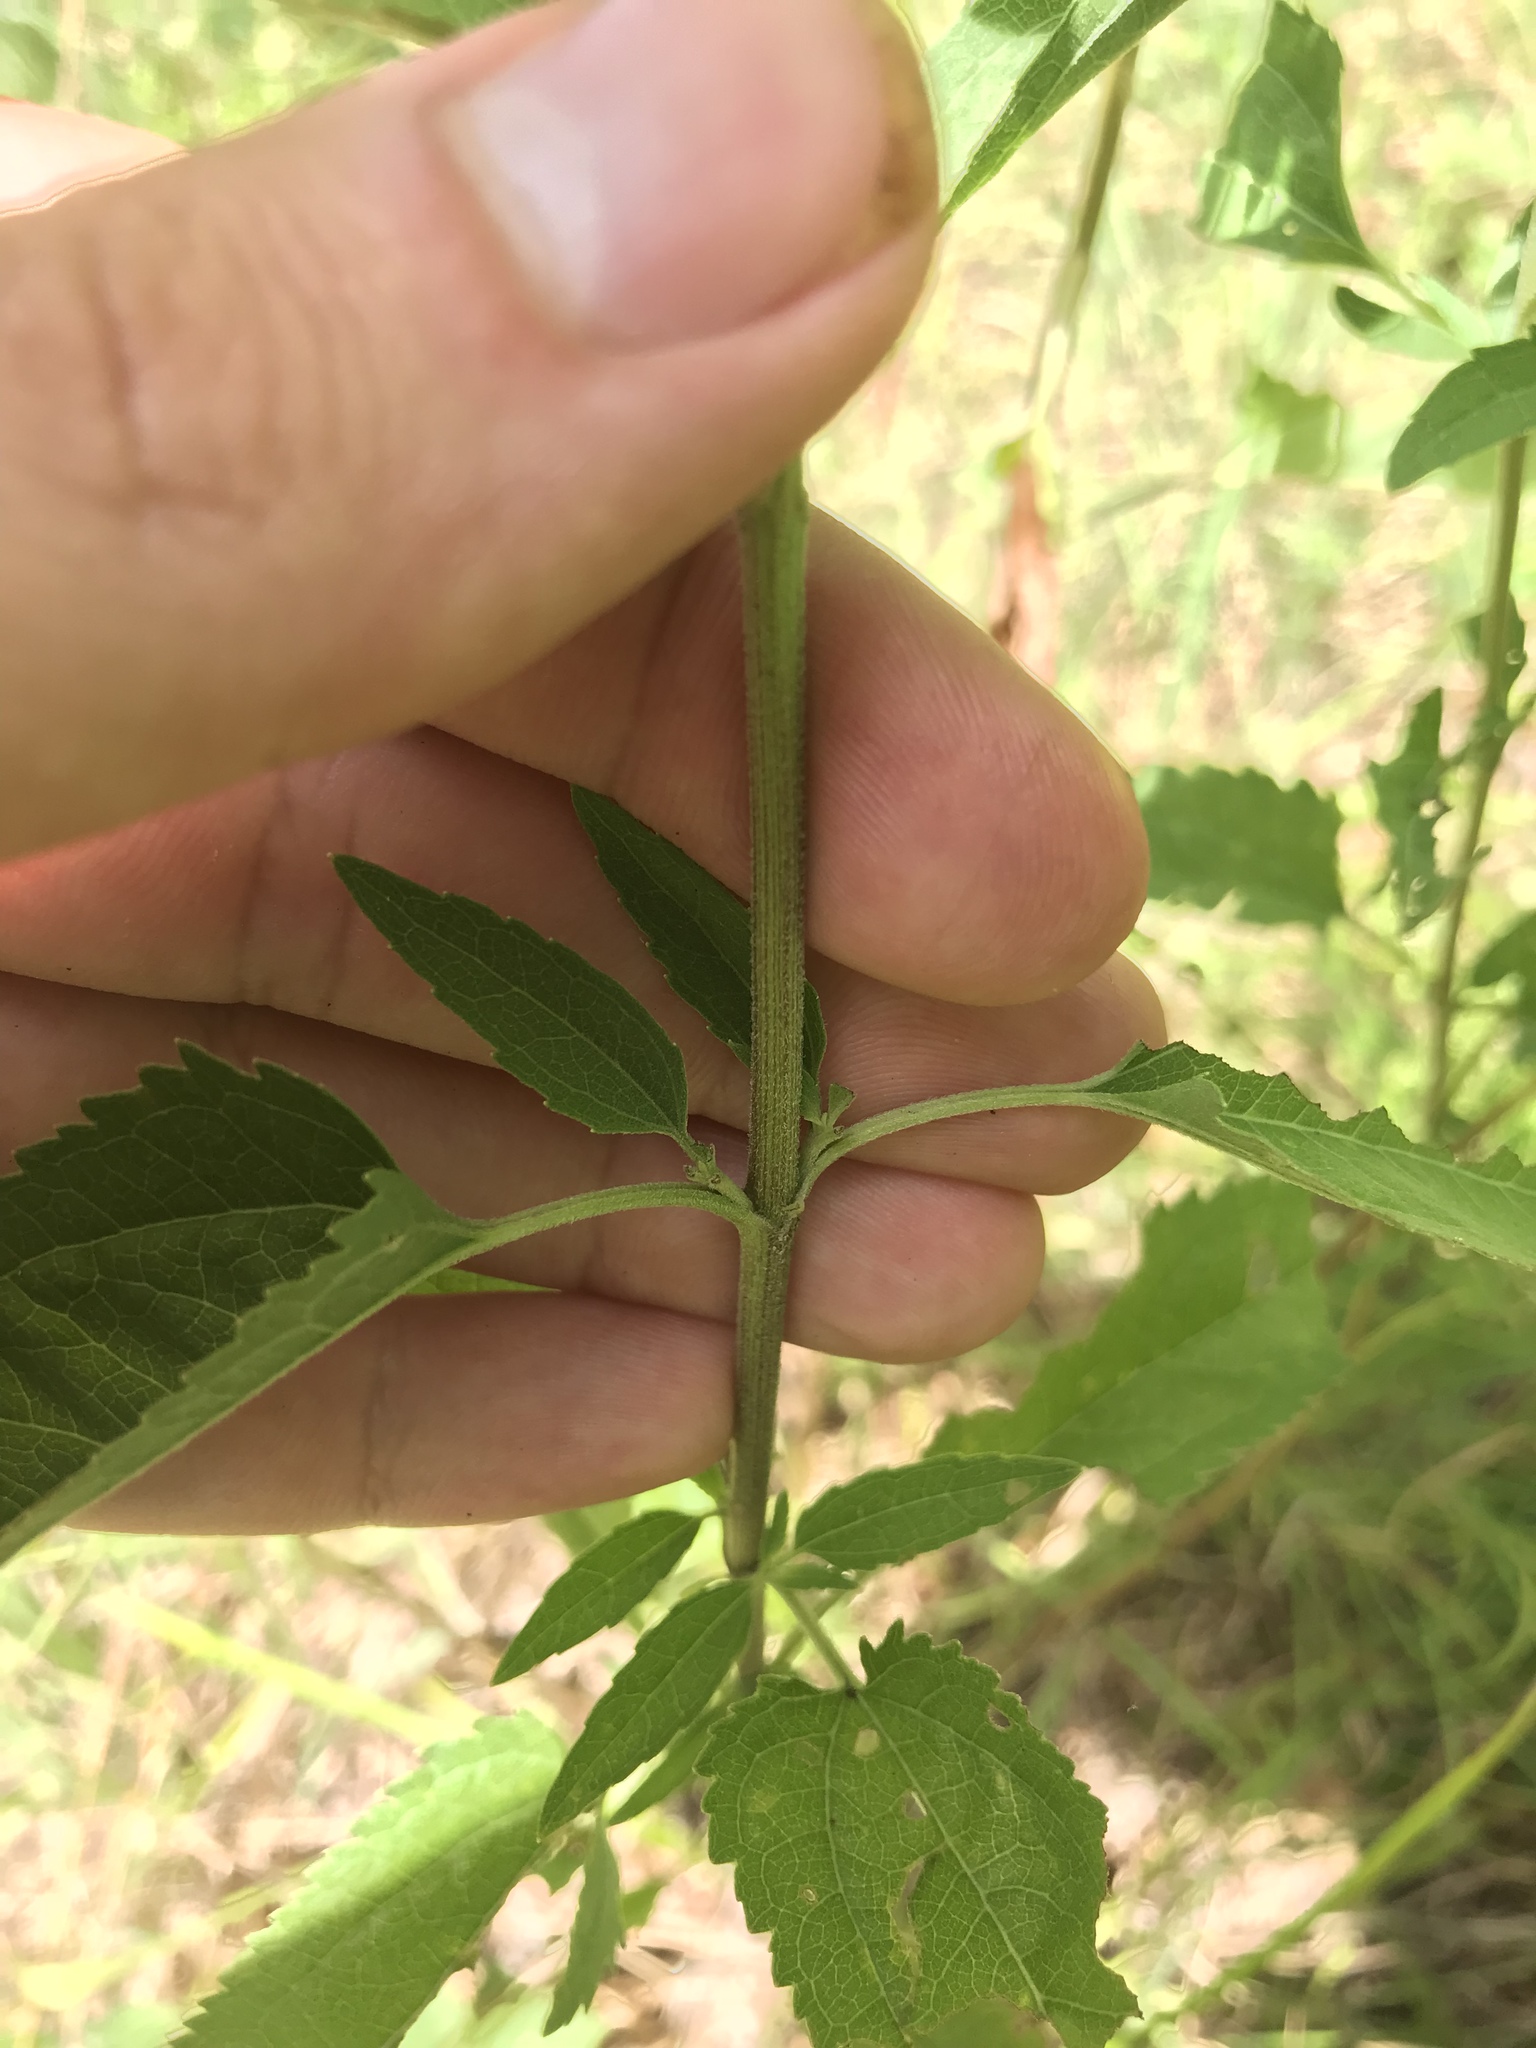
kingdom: Plantae
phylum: Tracheophyta
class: Magnoliopsida
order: Asterales
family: Asteraceae
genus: Eupatorium
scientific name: Eupatorium serotinum
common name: Late boneset
